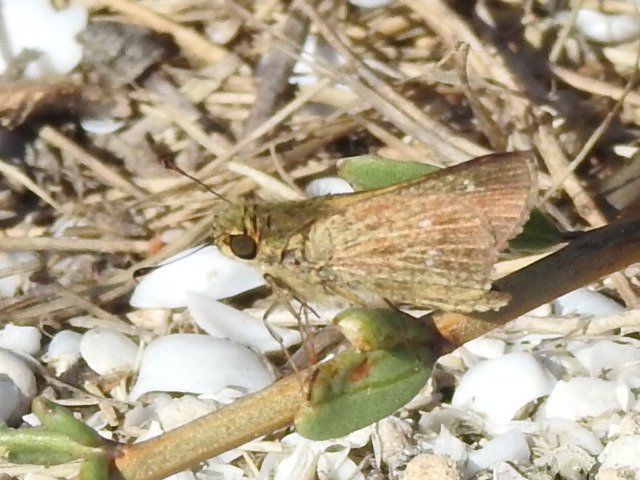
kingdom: Animalia
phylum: Arthropoda
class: Insecta
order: Lepidoptera
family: Hesperiidae
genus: Panoquina
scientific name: Panoquina panoquinoides
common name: Beach skipper
